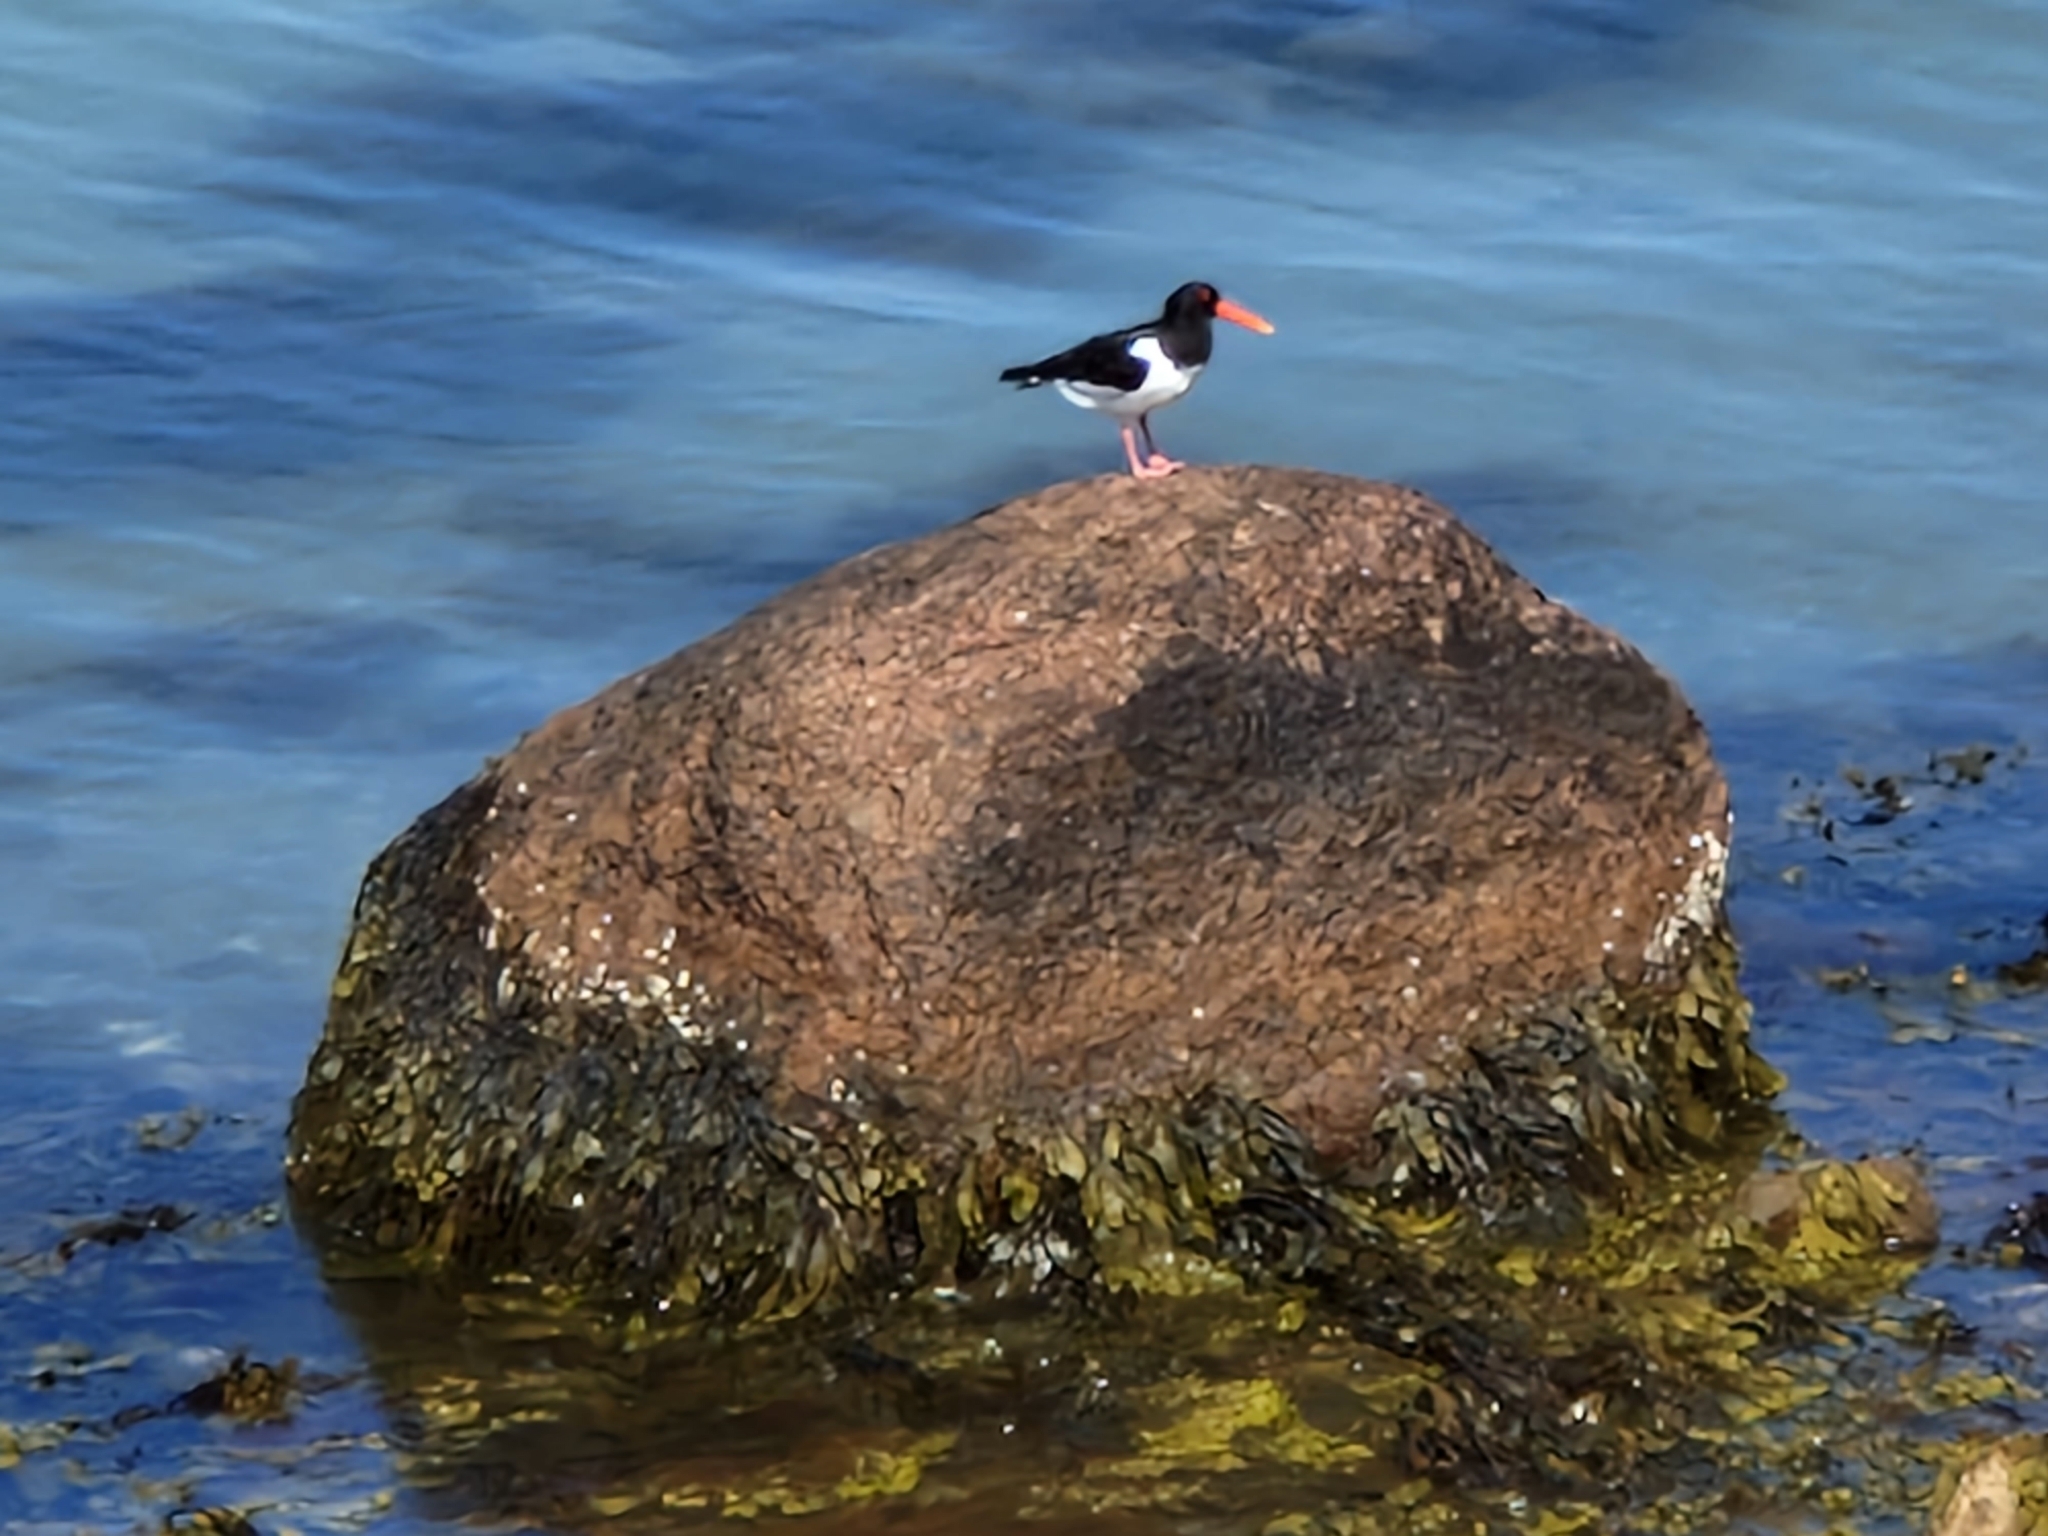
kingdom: Animalia
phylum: Chordata
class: Aves
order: Charadriiformes
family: Haematopodidae
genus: Haematopus
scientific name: Haematopus ostralegus
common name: Eurasian oystercatcher
